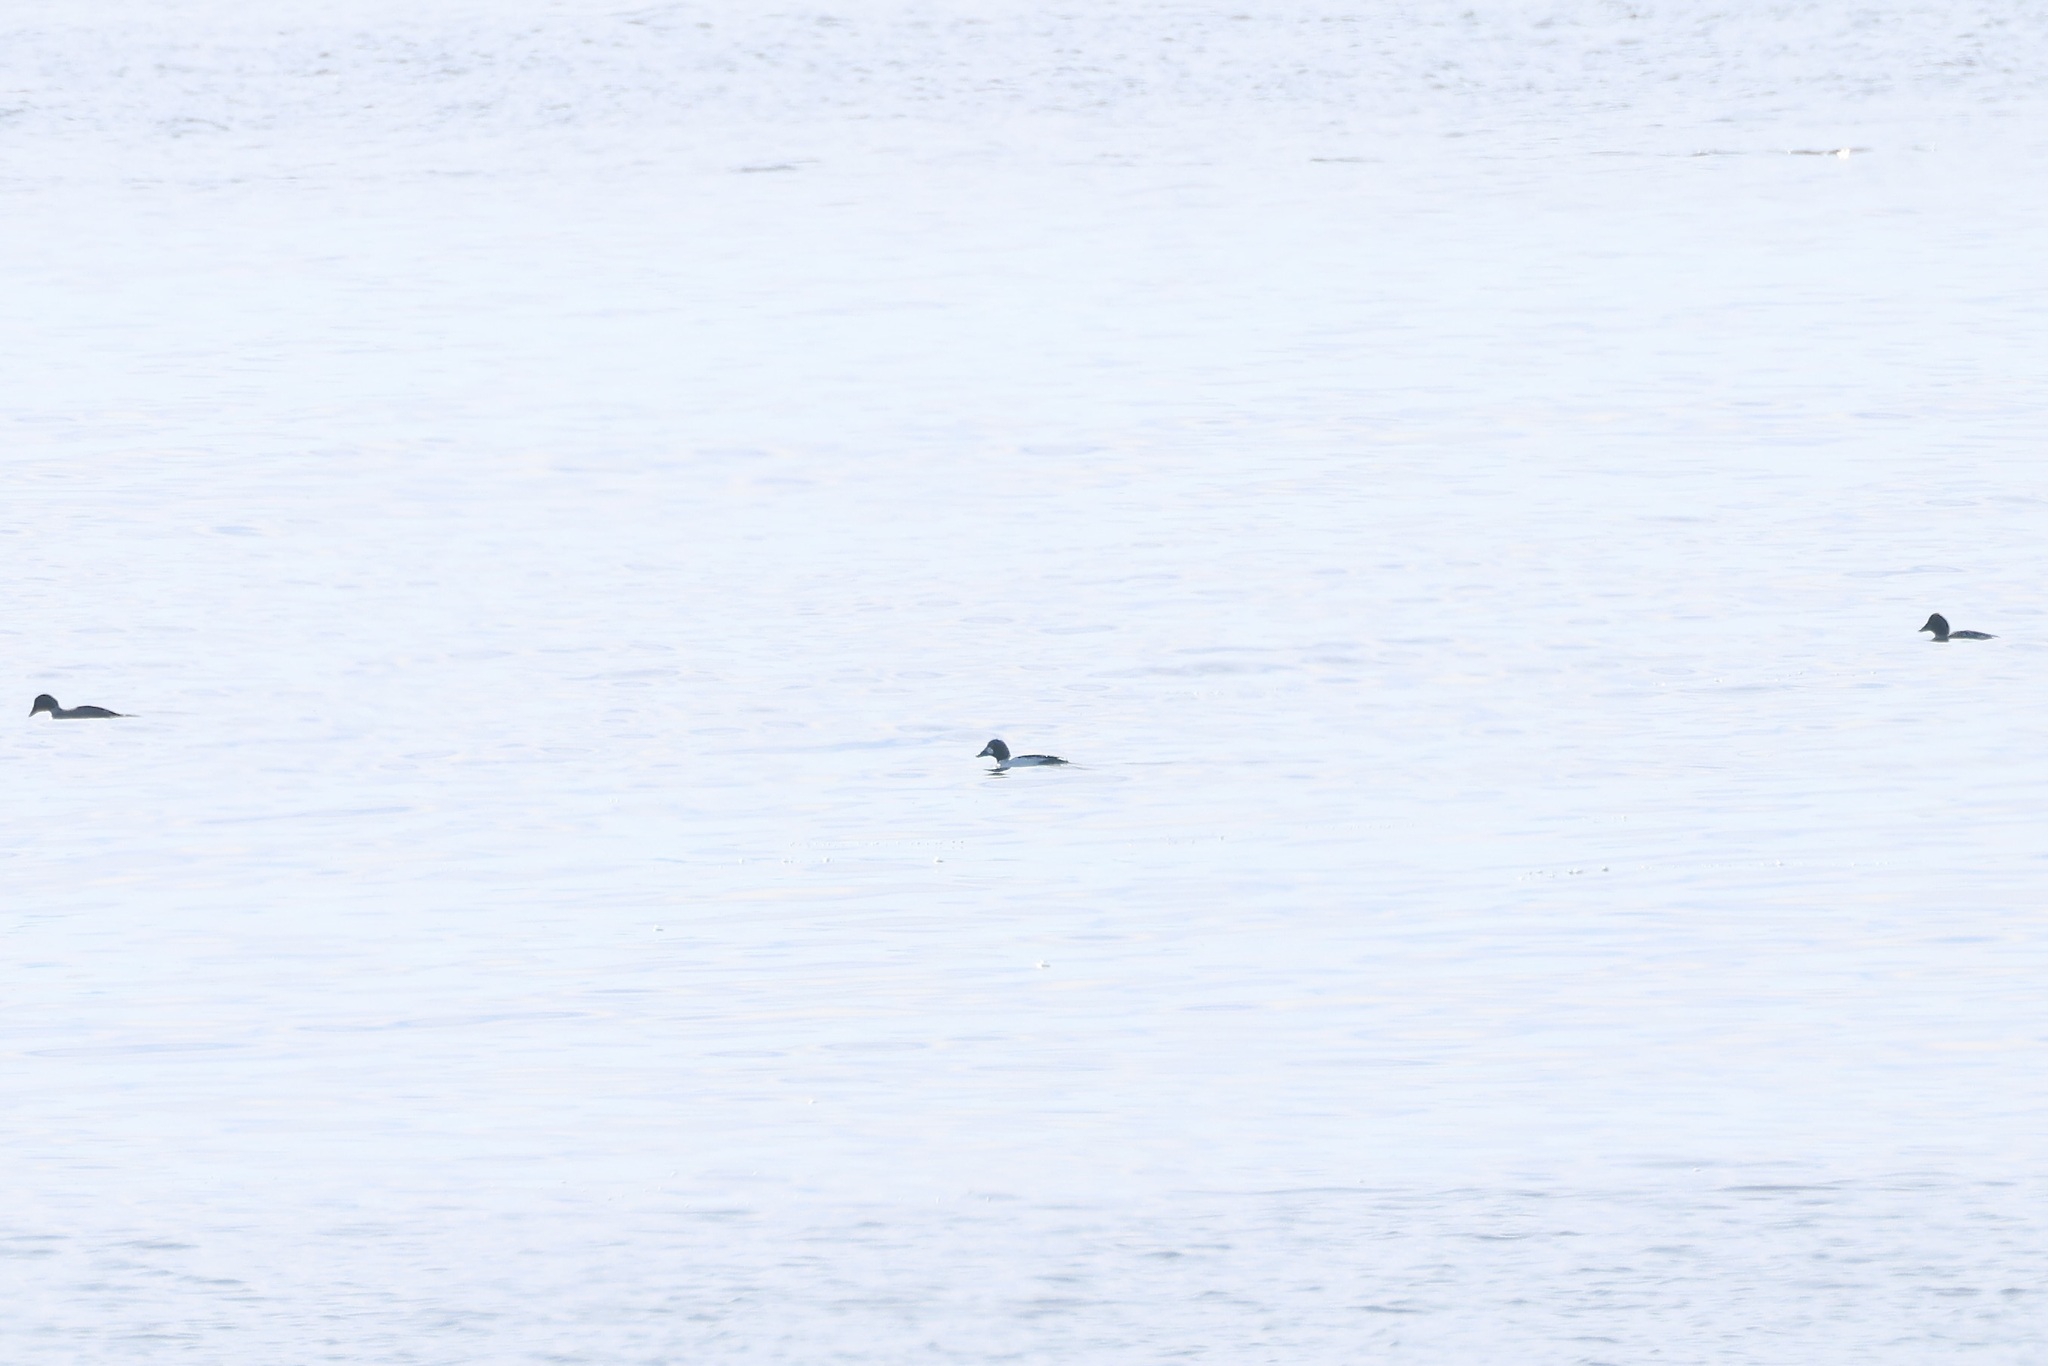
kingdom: Animalia
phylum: Chordata
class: Aves
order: Anseriformes
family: Anatidae
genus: Bucephala
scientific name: Bucephala clangula
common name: Common goldeneye
